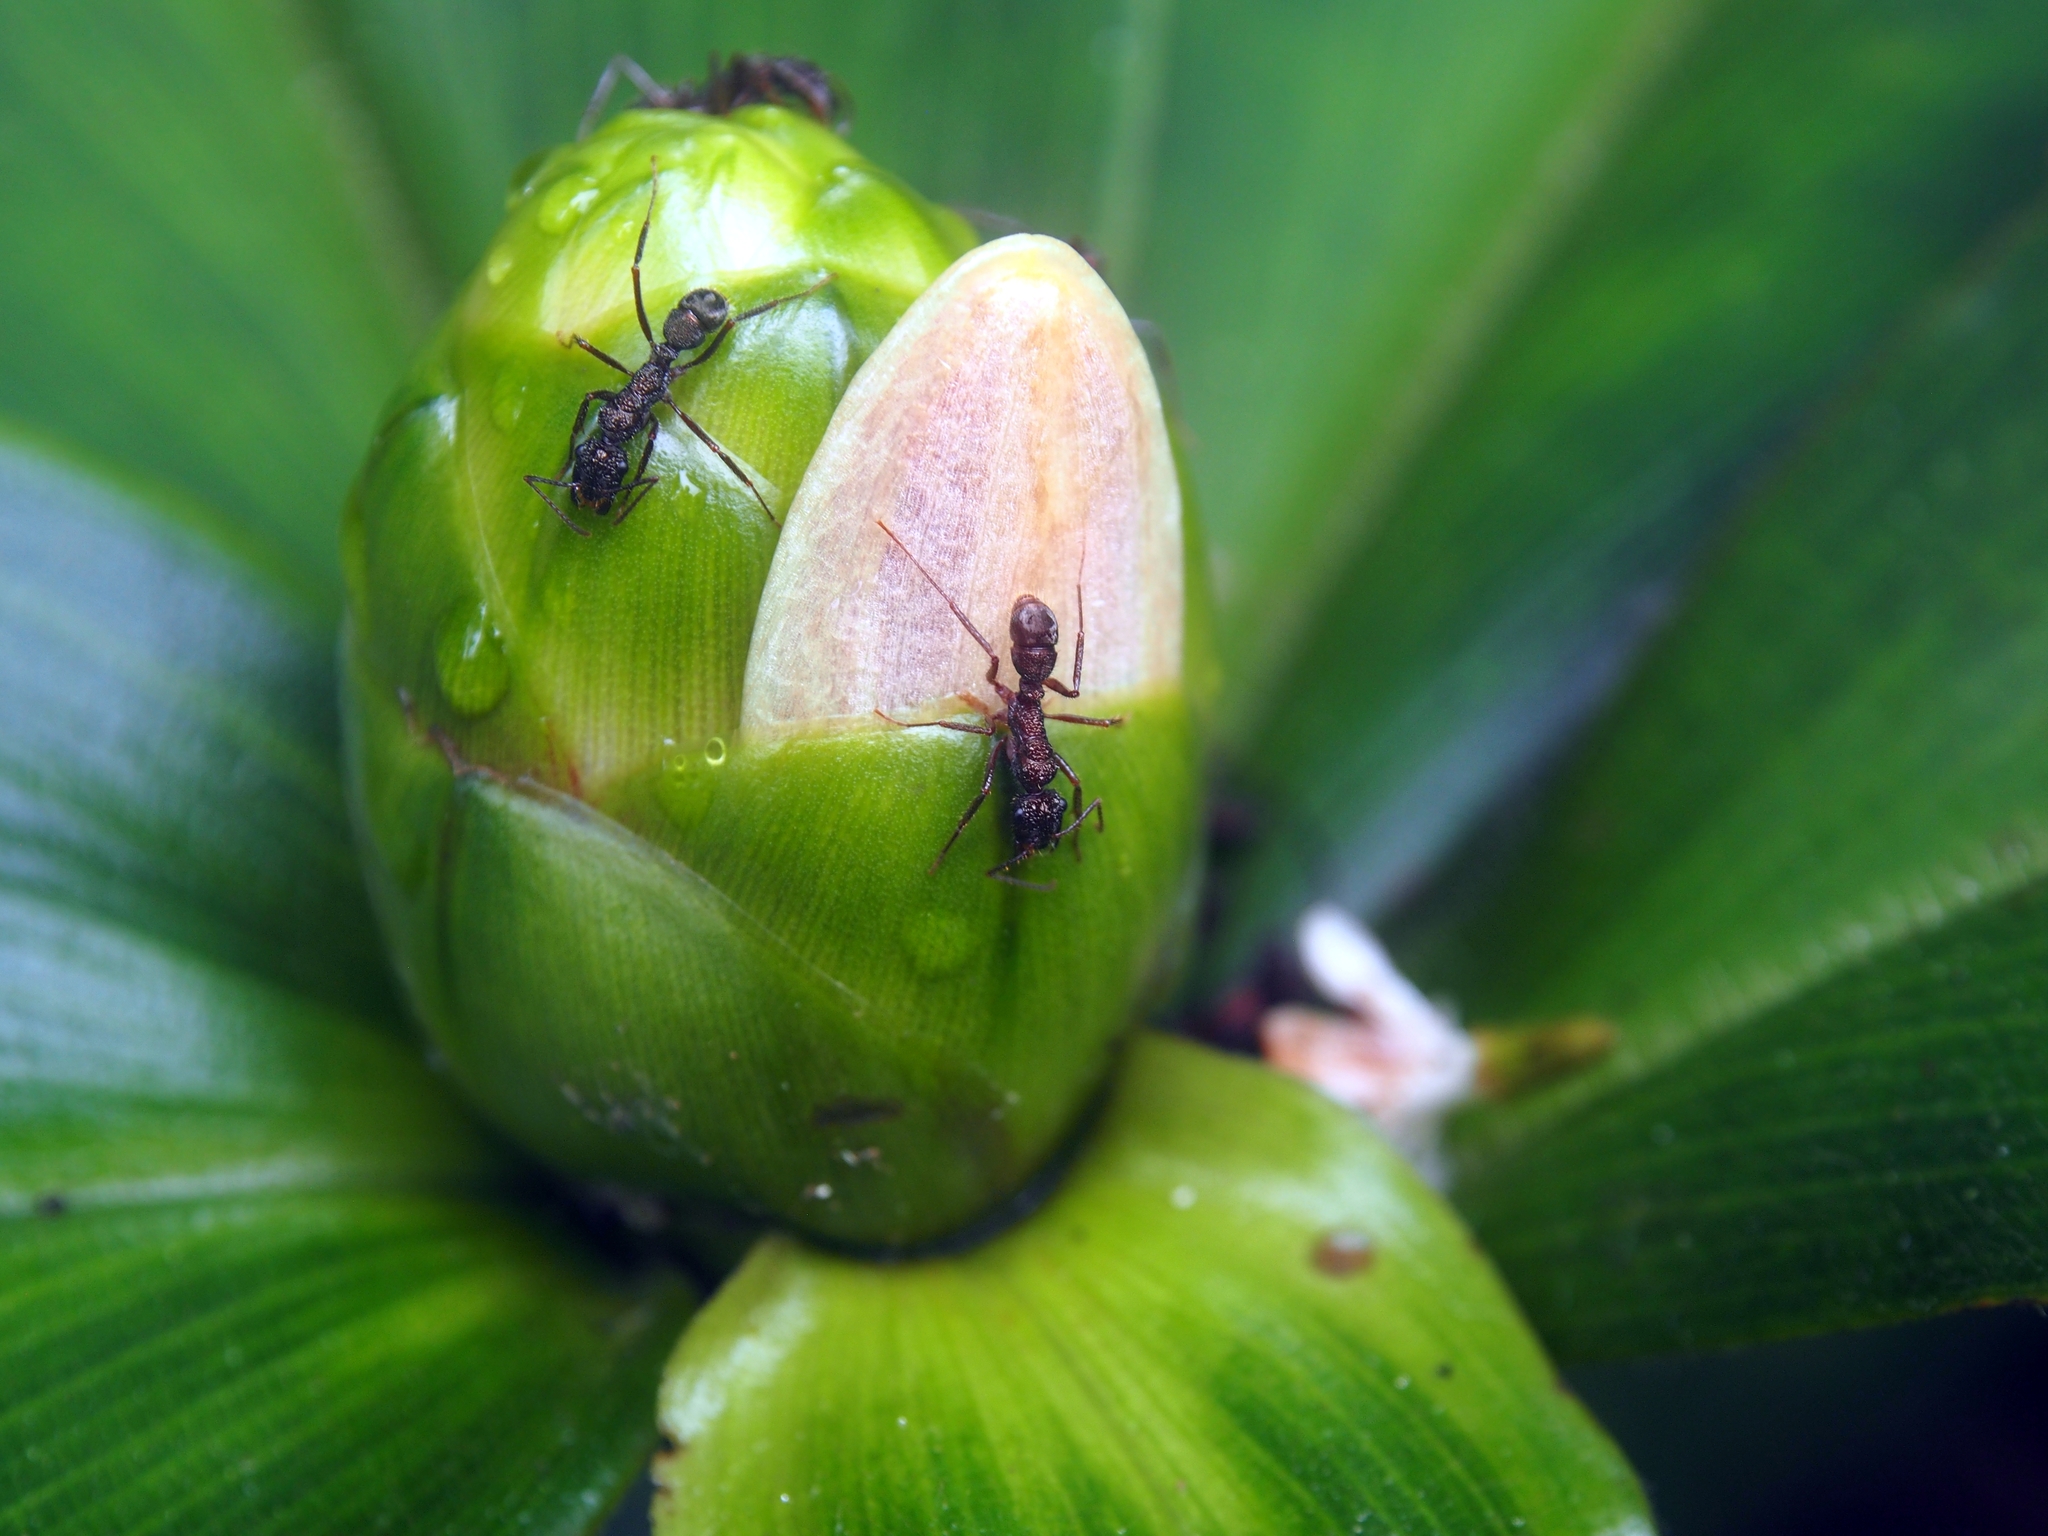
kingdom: Animalia
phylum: Arthropoda
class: Insecta
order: Hymenoptera
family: Formicidae
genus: Ectatomma
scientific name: Ectatomma ruidum
